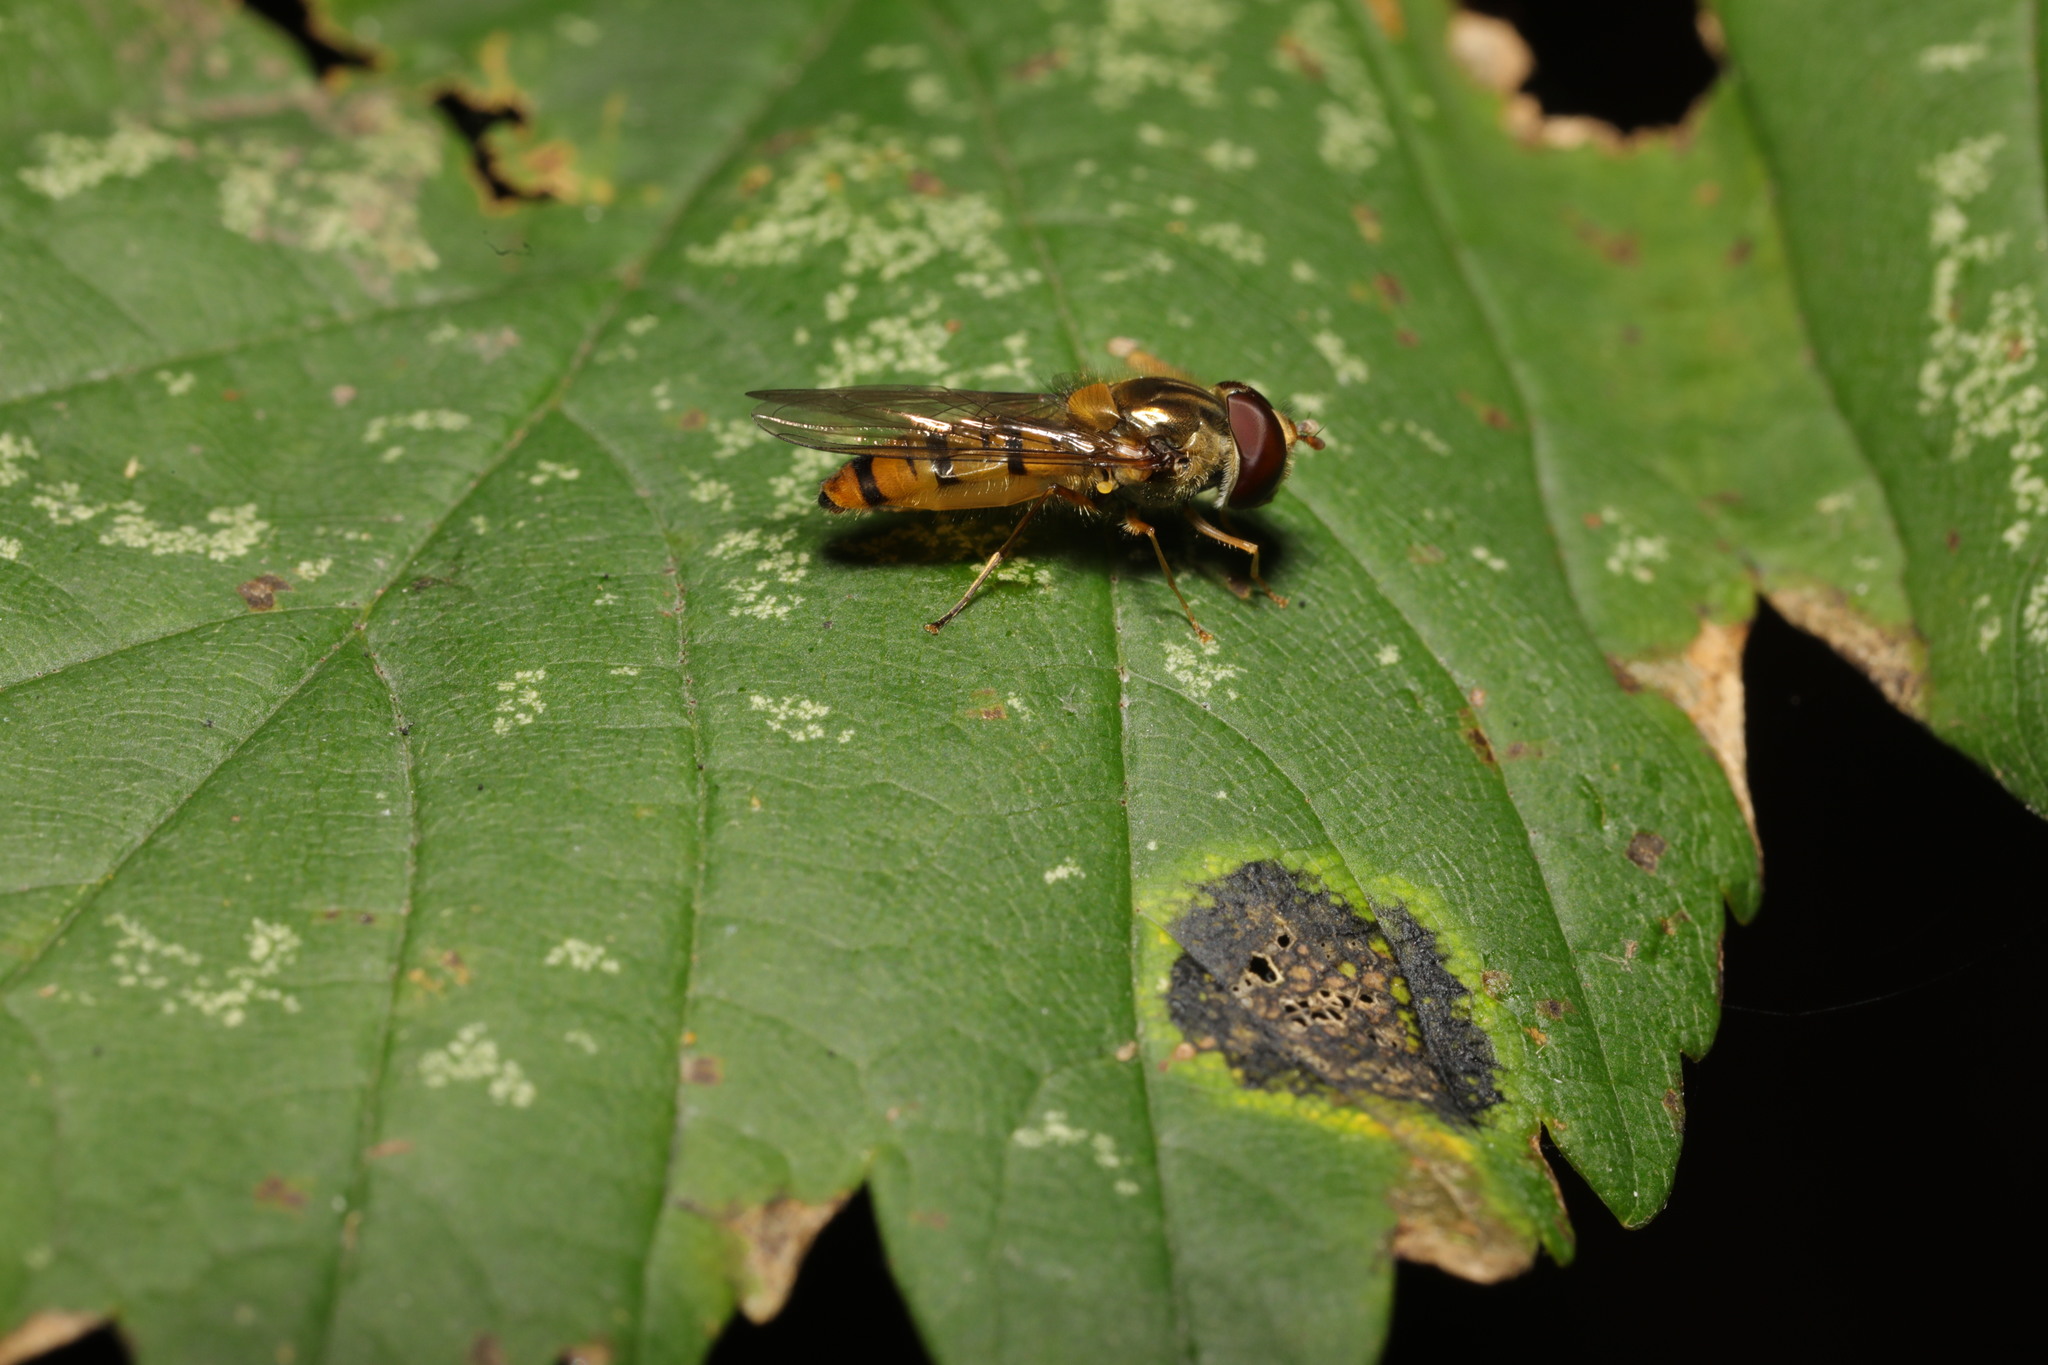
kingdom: Animalia
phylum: Arthropoda
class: Insecta
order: Diptera
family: Syrphidae
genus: Episyrphus
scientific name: Episyrphus balteatus
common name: Marmalade hoverfly
